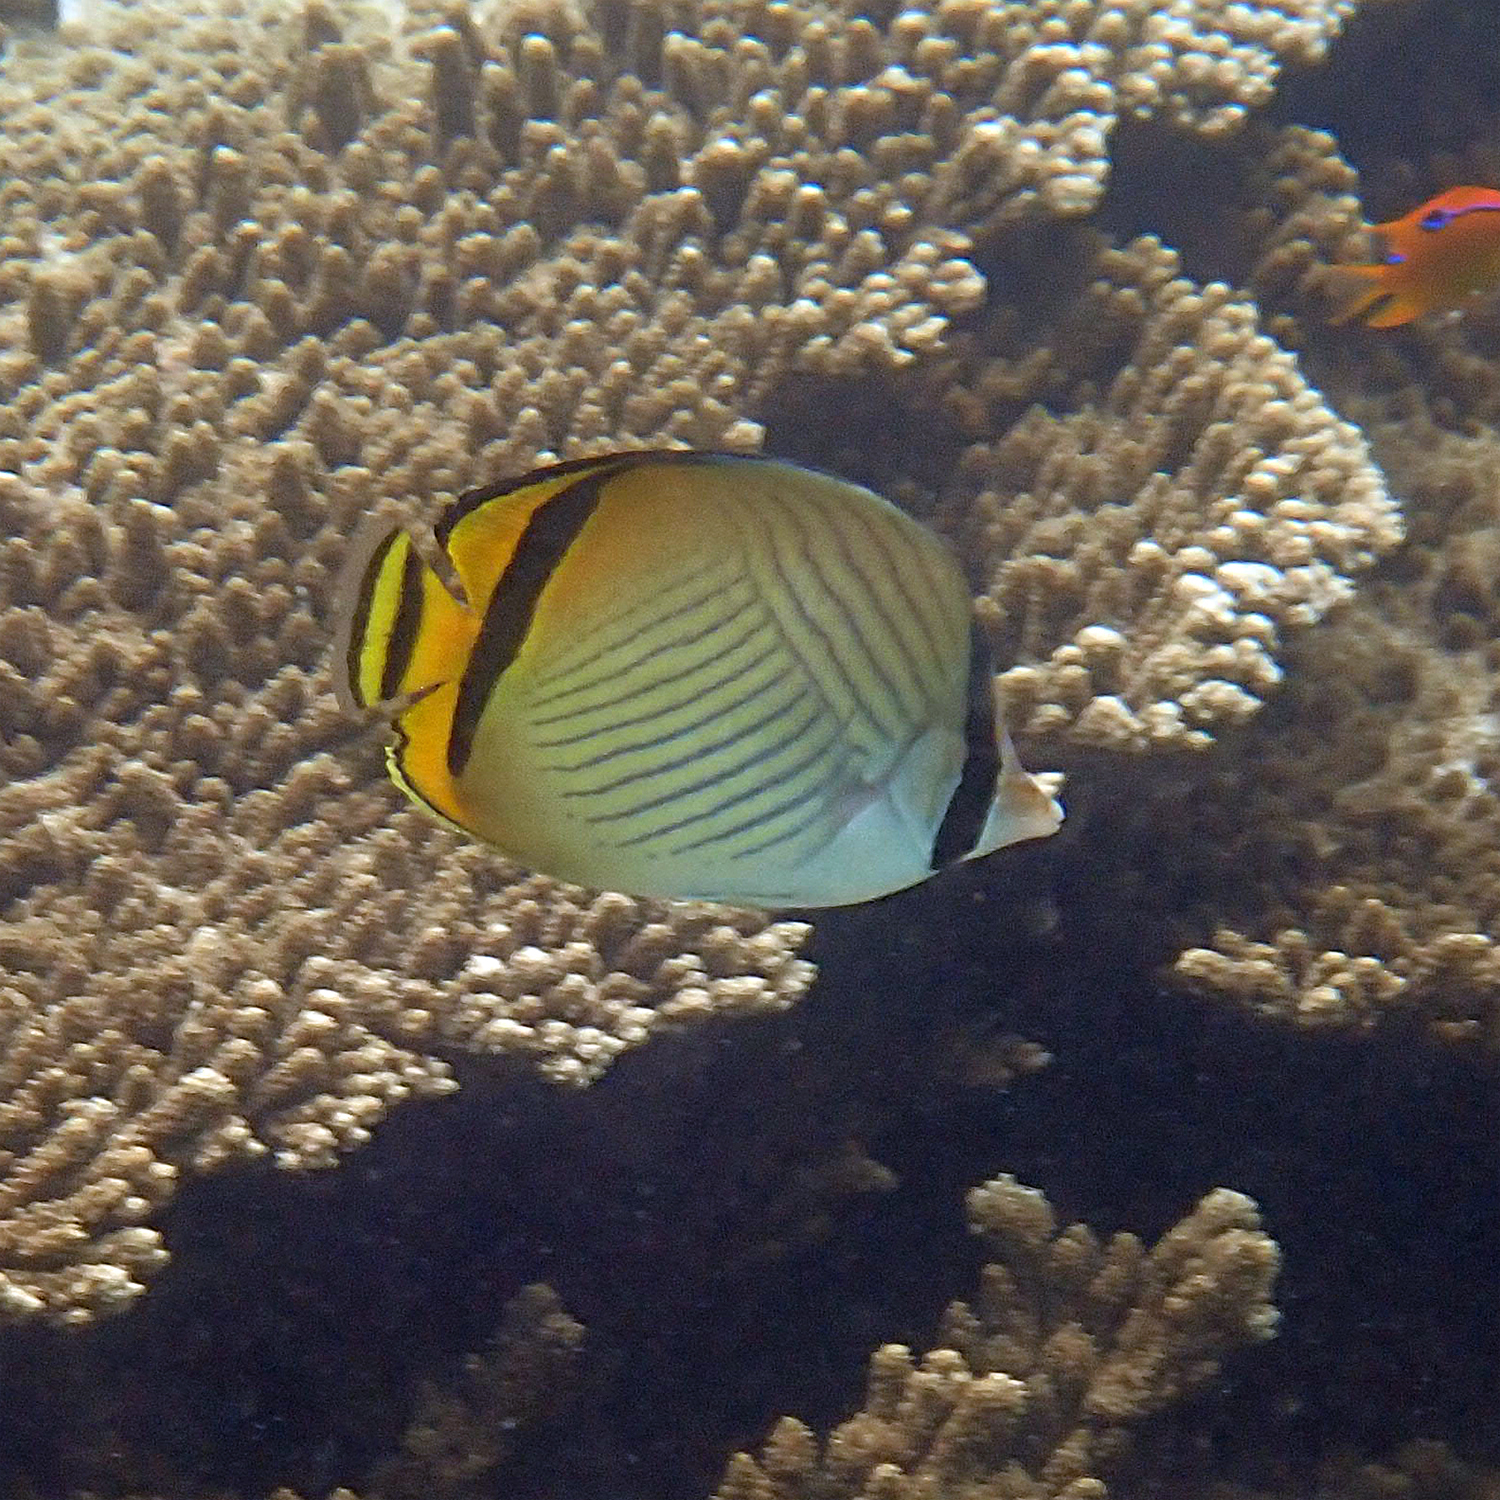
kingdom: Animalia
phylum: Chordata
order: Perciformes
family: Chaetodontidae
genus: Chaetodon
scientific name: Chaetodon vagabundus
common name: Vagabond butterflyfish
